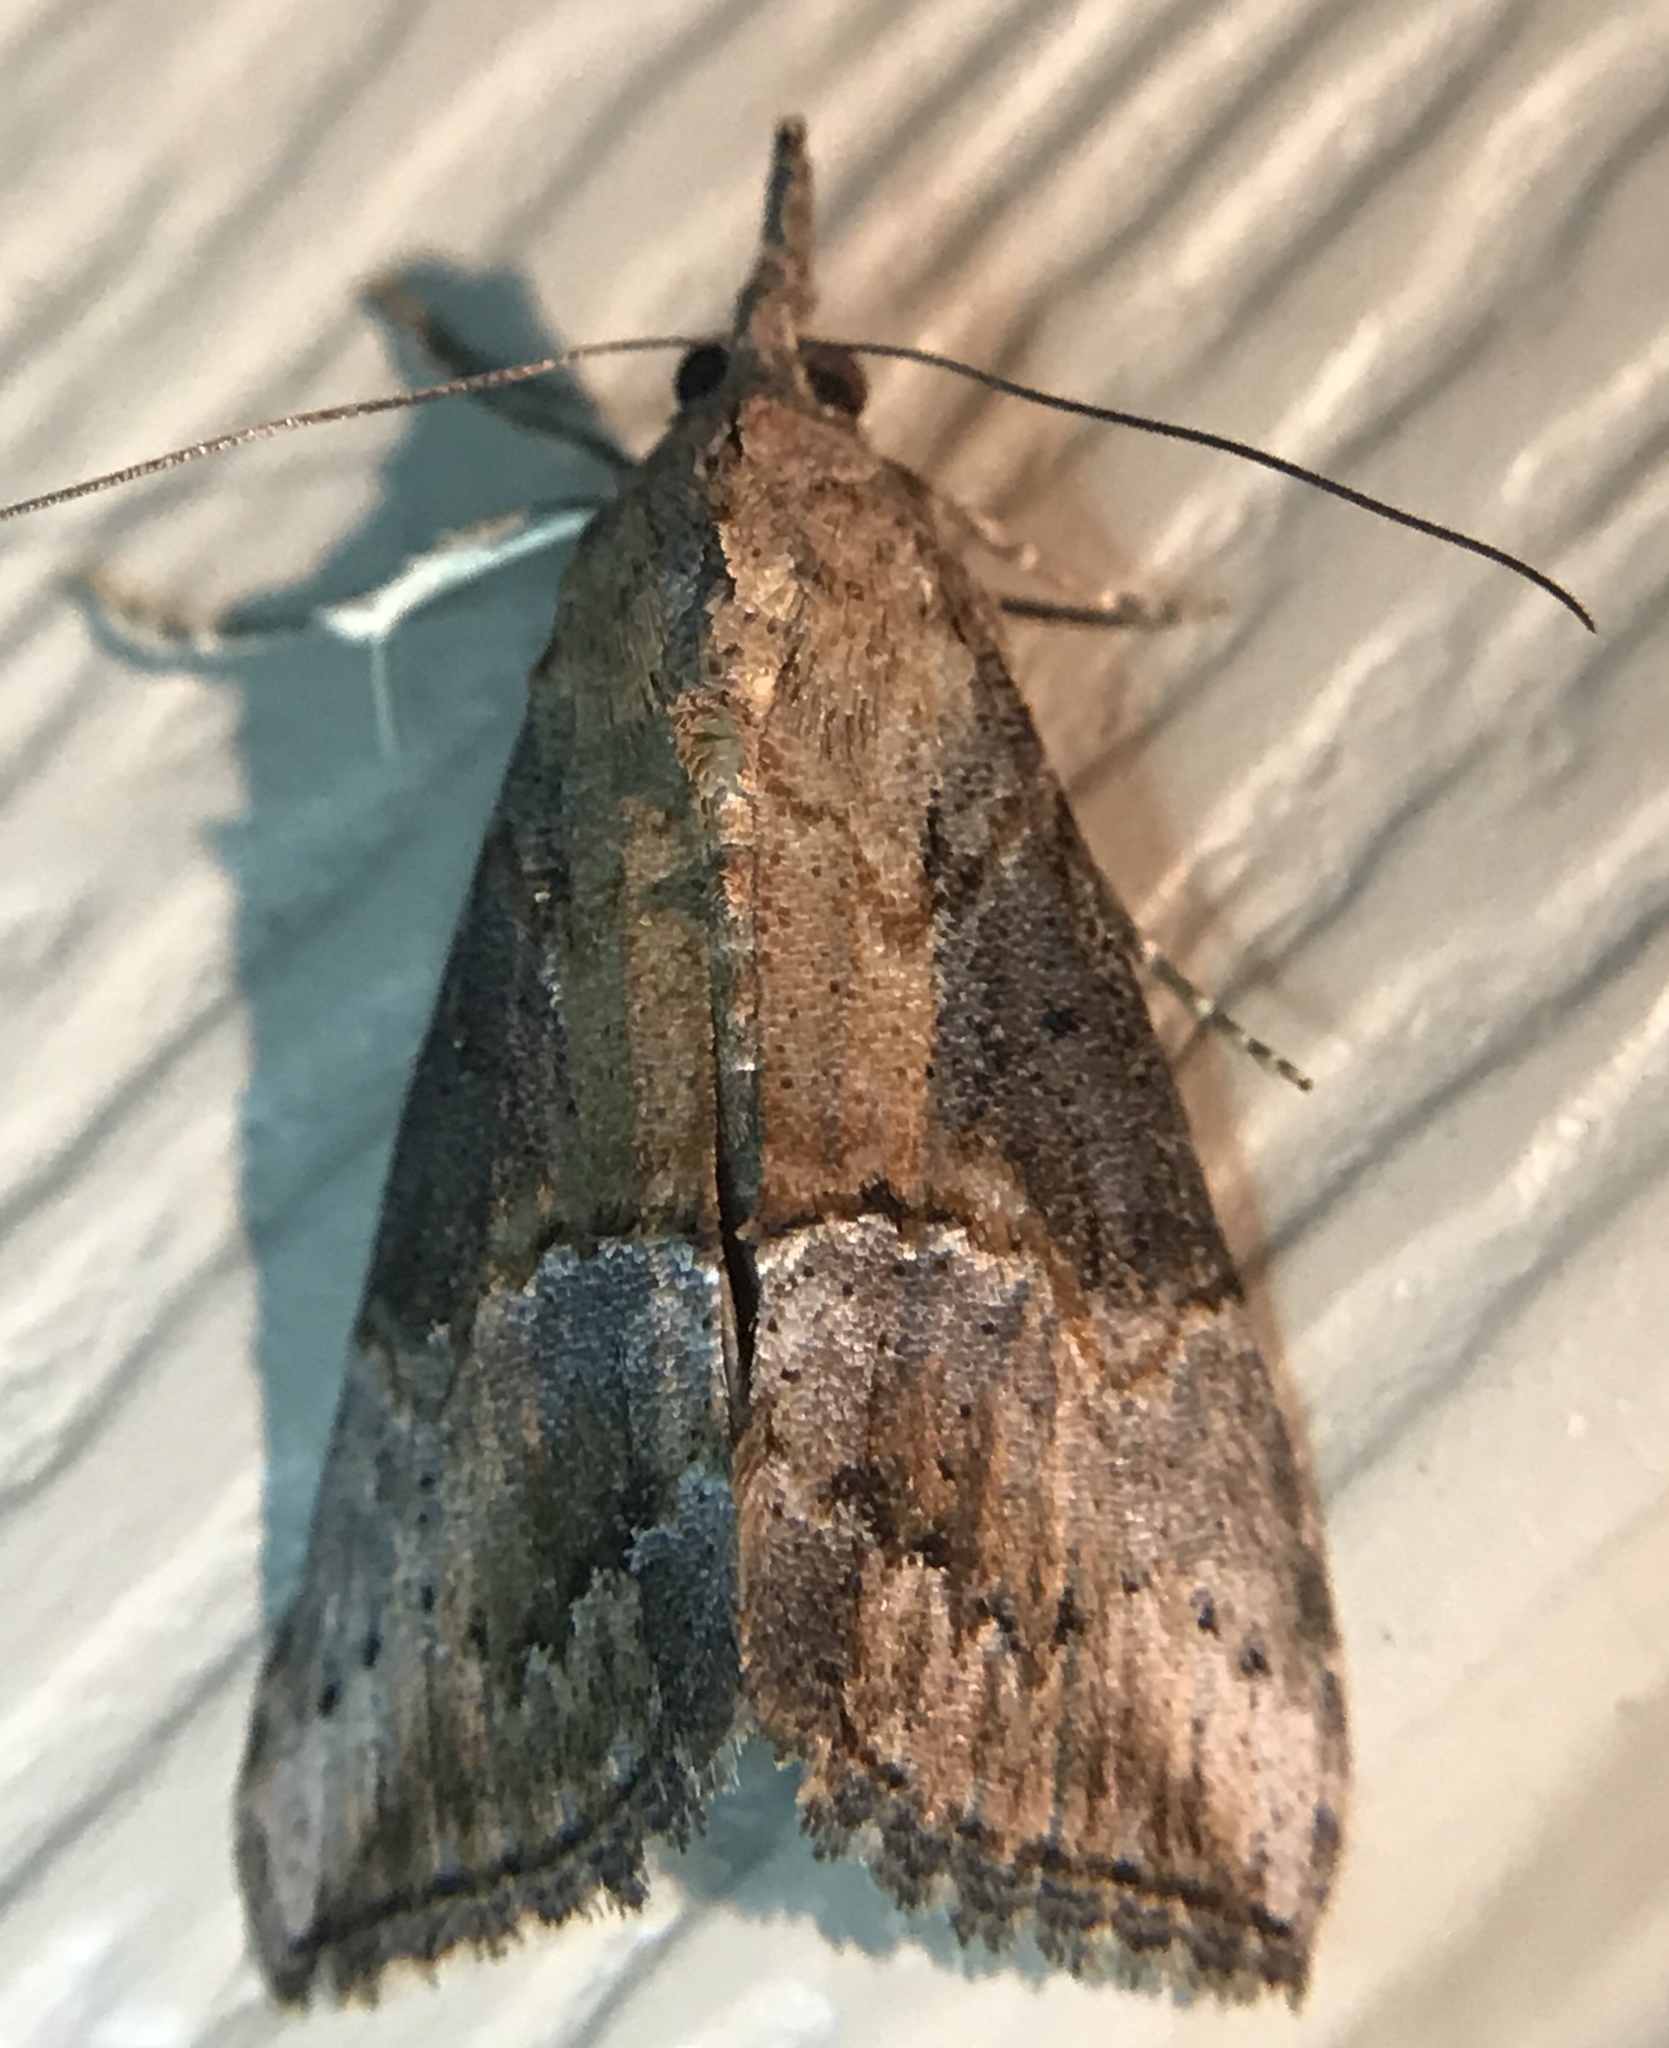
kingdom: Animalia
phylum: Arthropoda
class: Insecta
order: Lepidoptera
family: Erebidae
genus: Hypena
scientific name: Hypena scabra
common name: Green cloverworm
